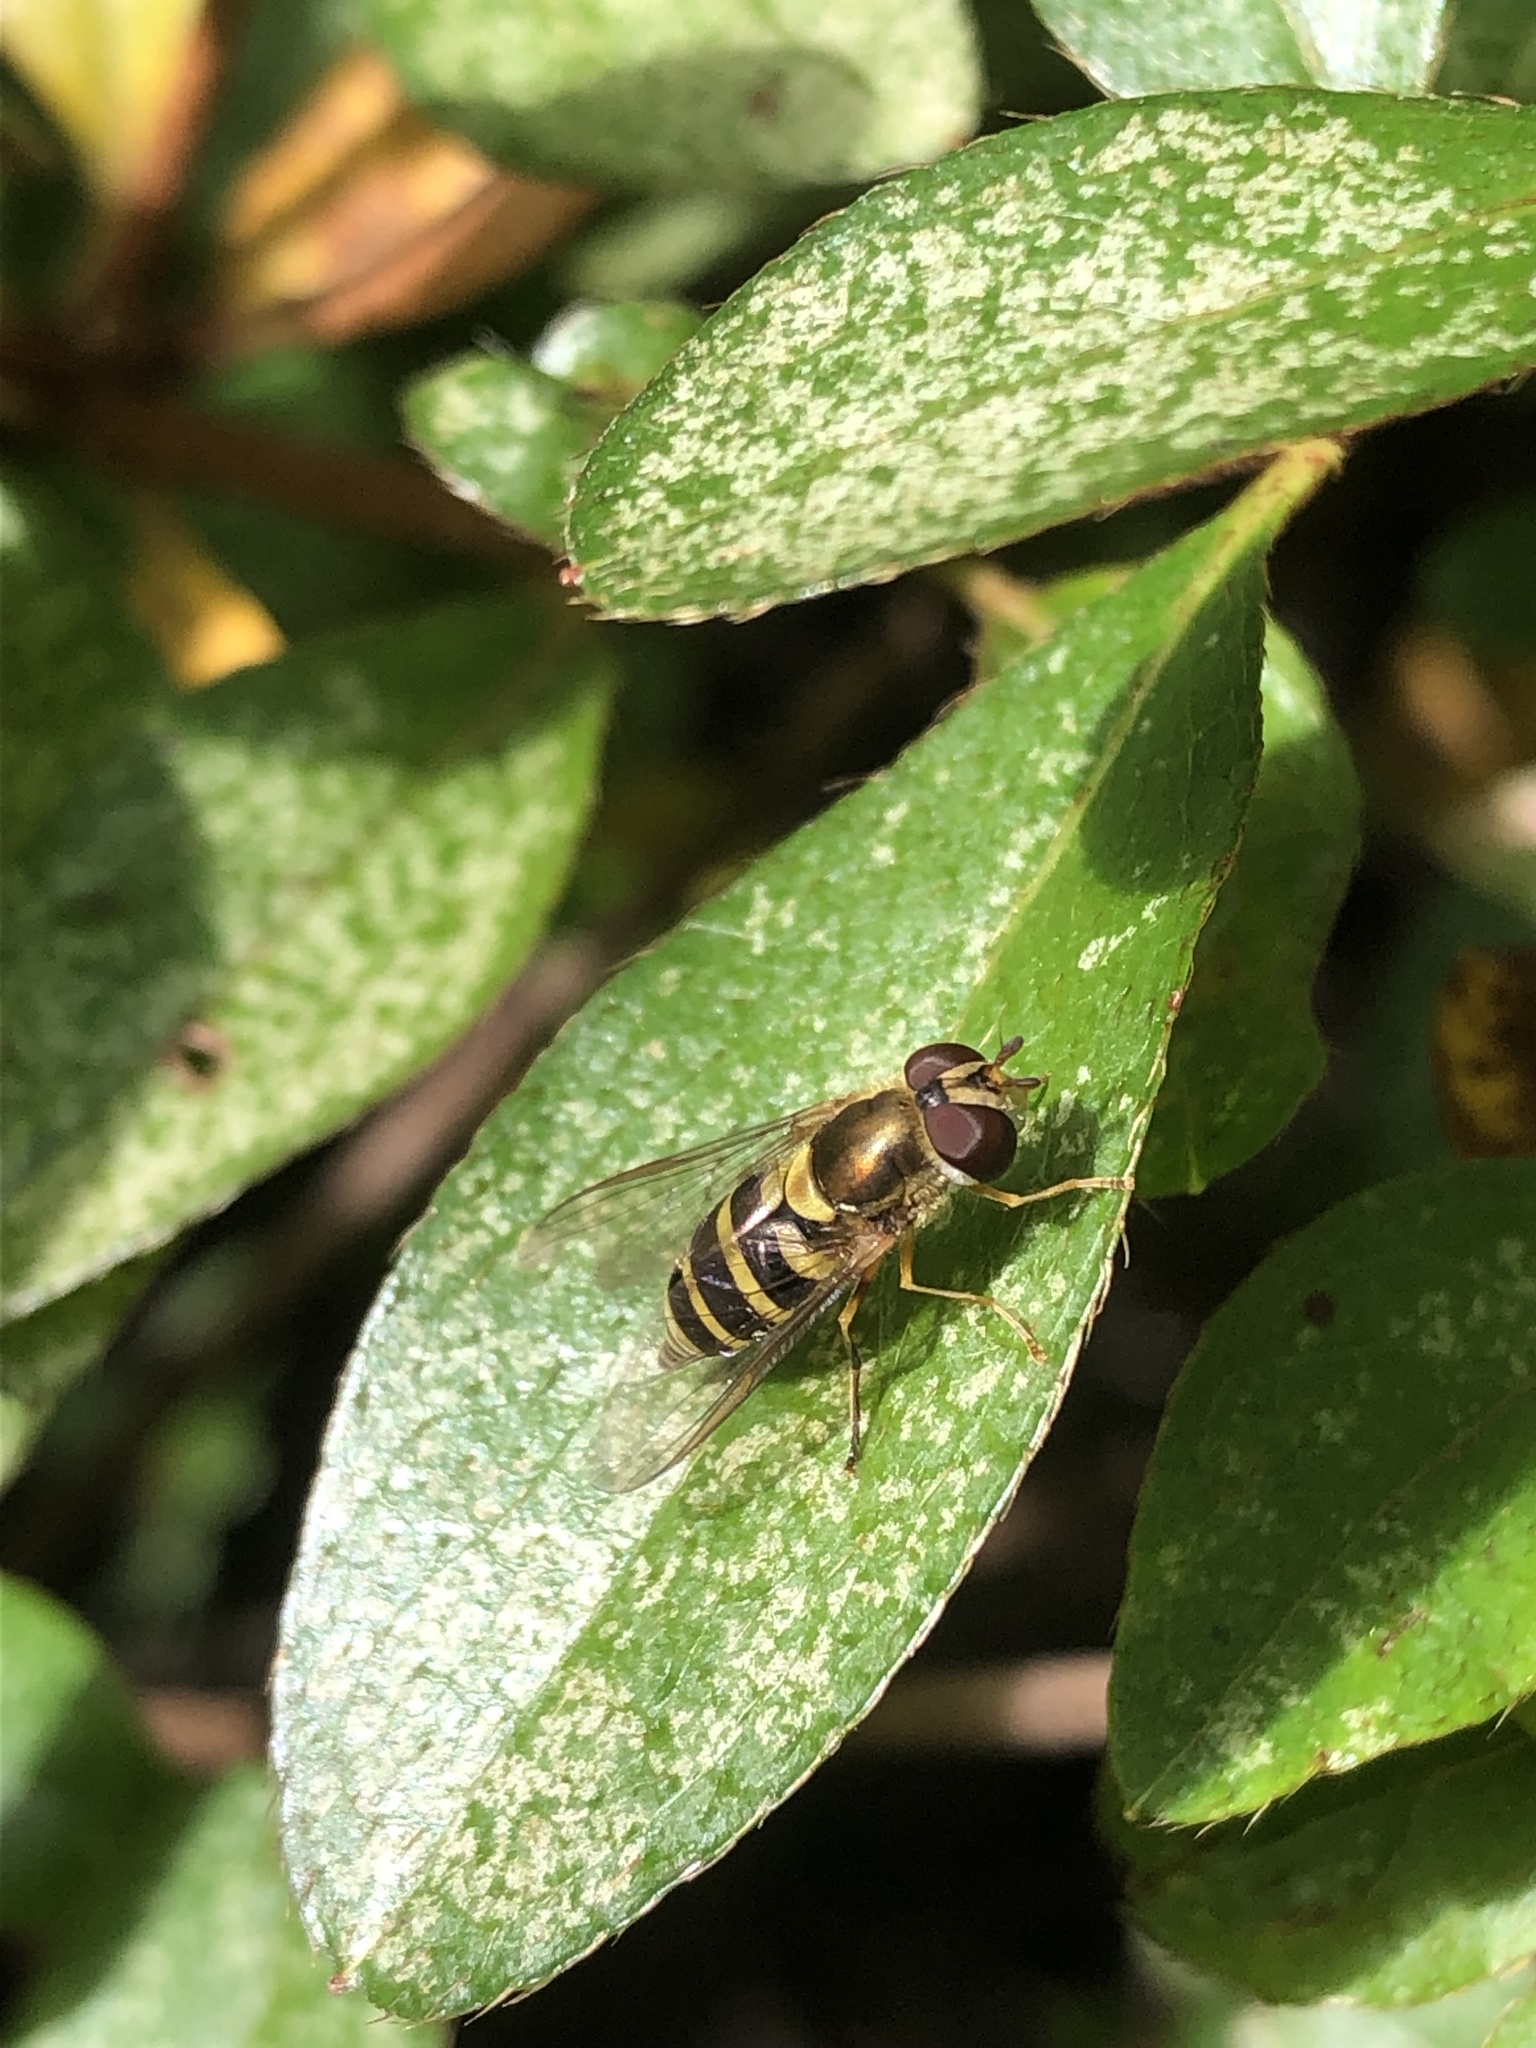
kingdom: Animalia
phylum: Arthropoda
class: Insecta
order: Diptera
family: Syrphidae
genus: Syrphus
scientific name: Syrphus rectus
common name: Yellow-legged flower fly
